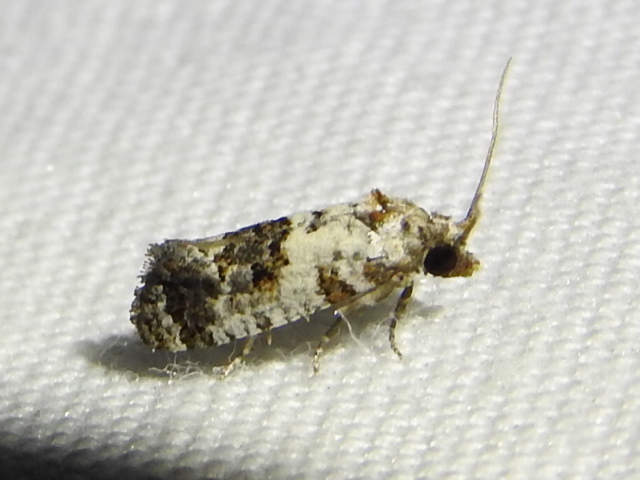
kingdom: Animalia
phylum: Arthropoda
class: Insecta
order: Lepidoptera
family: Tortricidae
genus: Rudenia
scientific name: Rudenia leguminana
